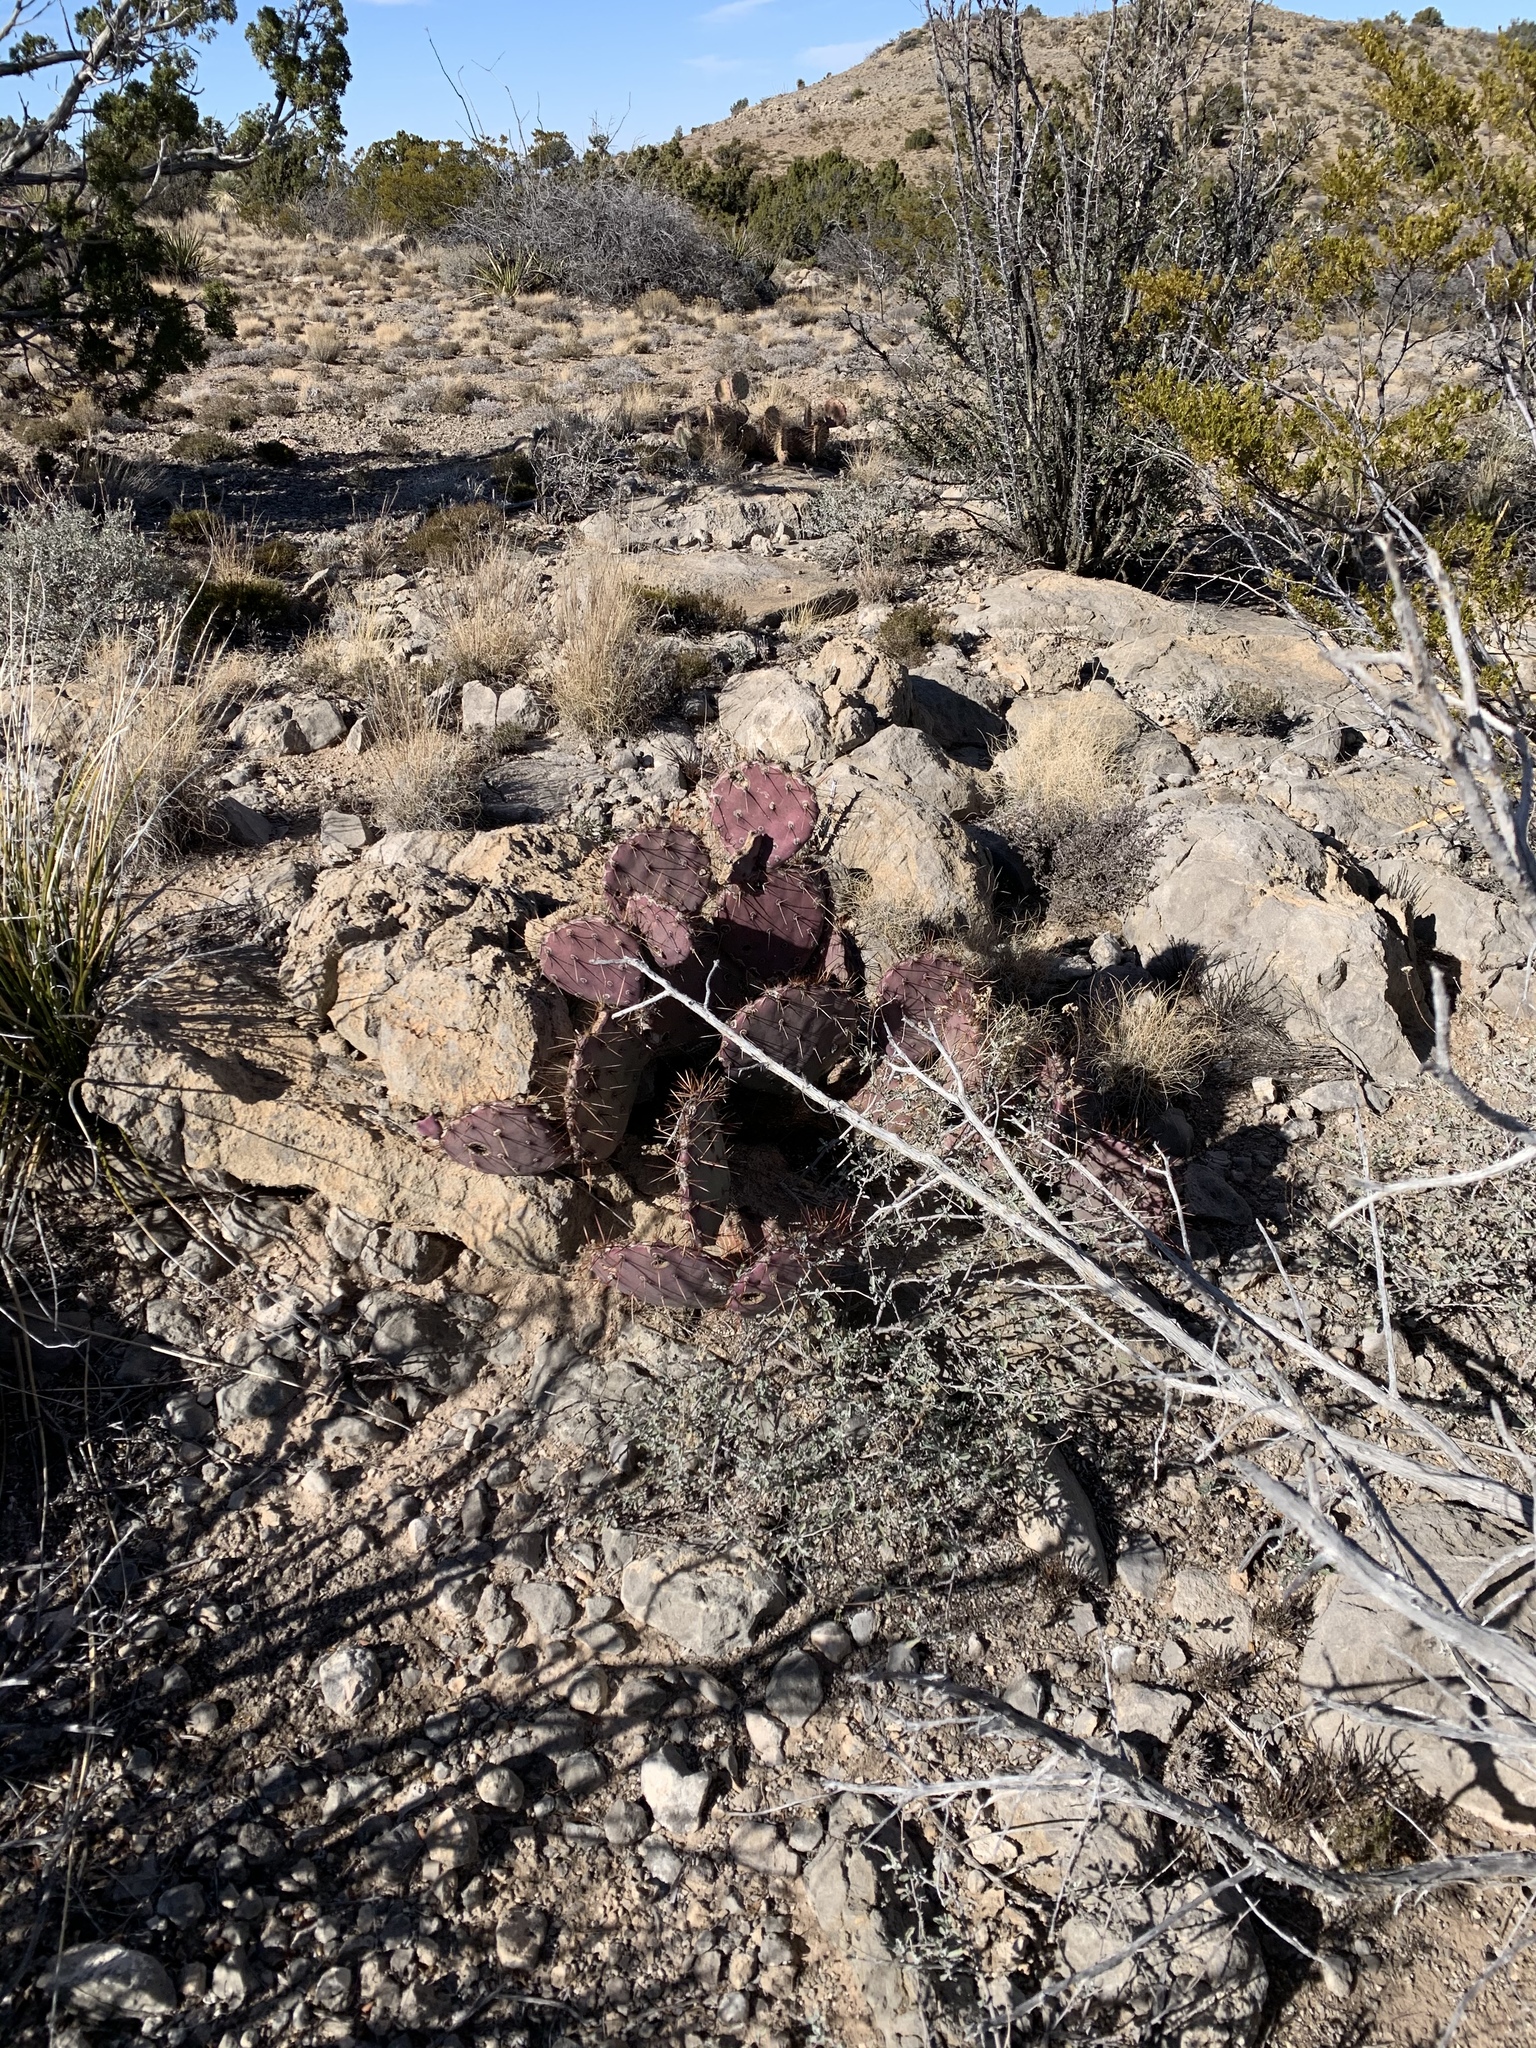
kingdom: Plantae
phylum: Tracheophyta
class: Magnoliopsida
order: Caryophyllales
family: Cactaceae
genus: Opuntia
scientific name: Opuntia macrocentra
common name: Purple prickly-pear
